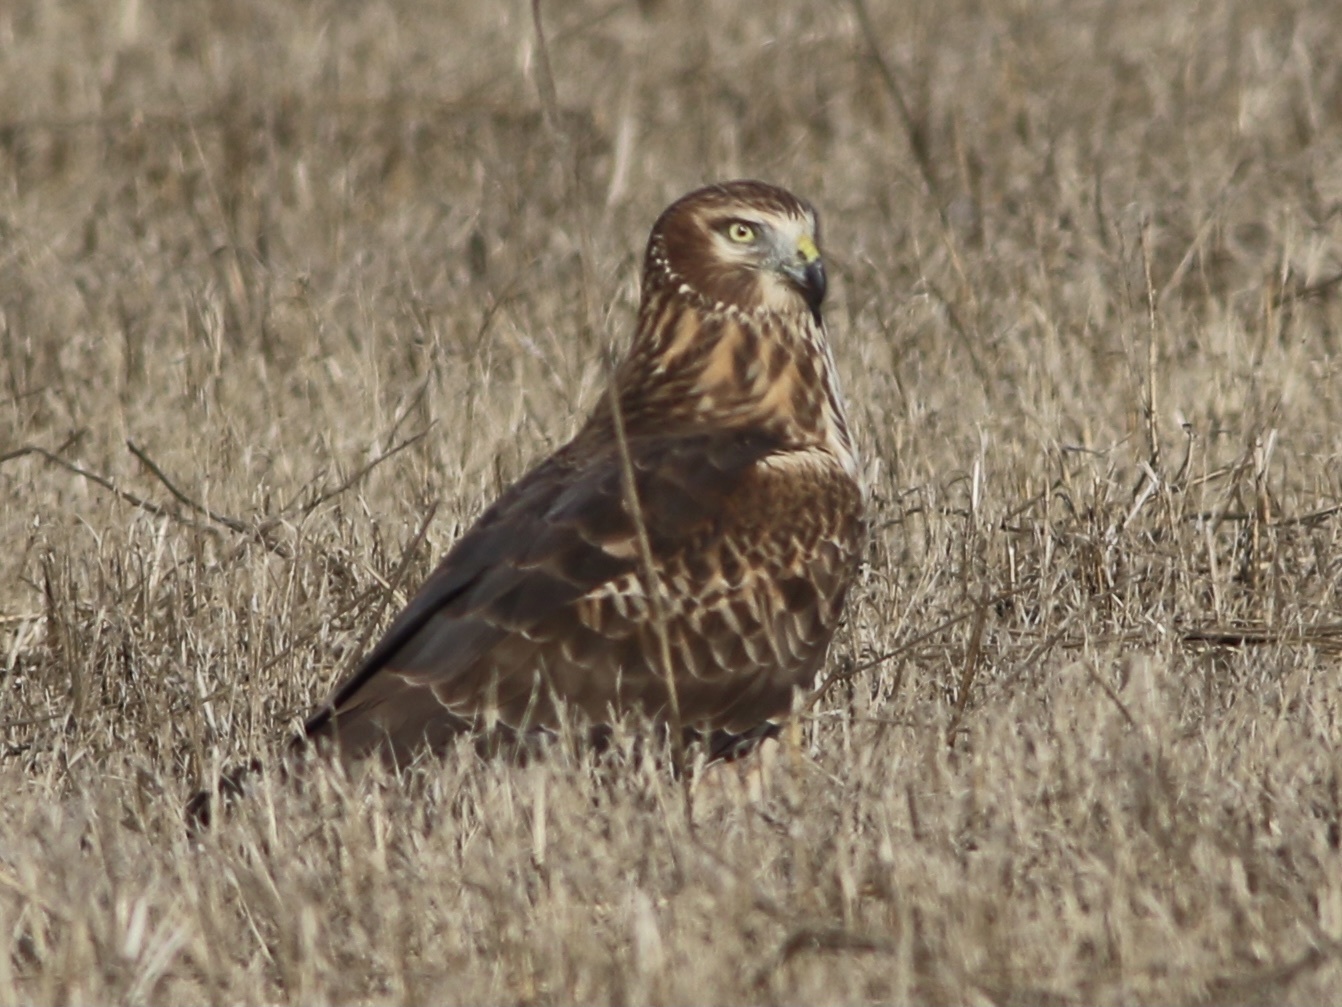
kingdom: Animalia
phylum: Chordata
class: Aves
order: Accipitriformes
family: Accipitridae
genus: Circus
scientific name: Circus cyaneus
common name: Hen harrier
